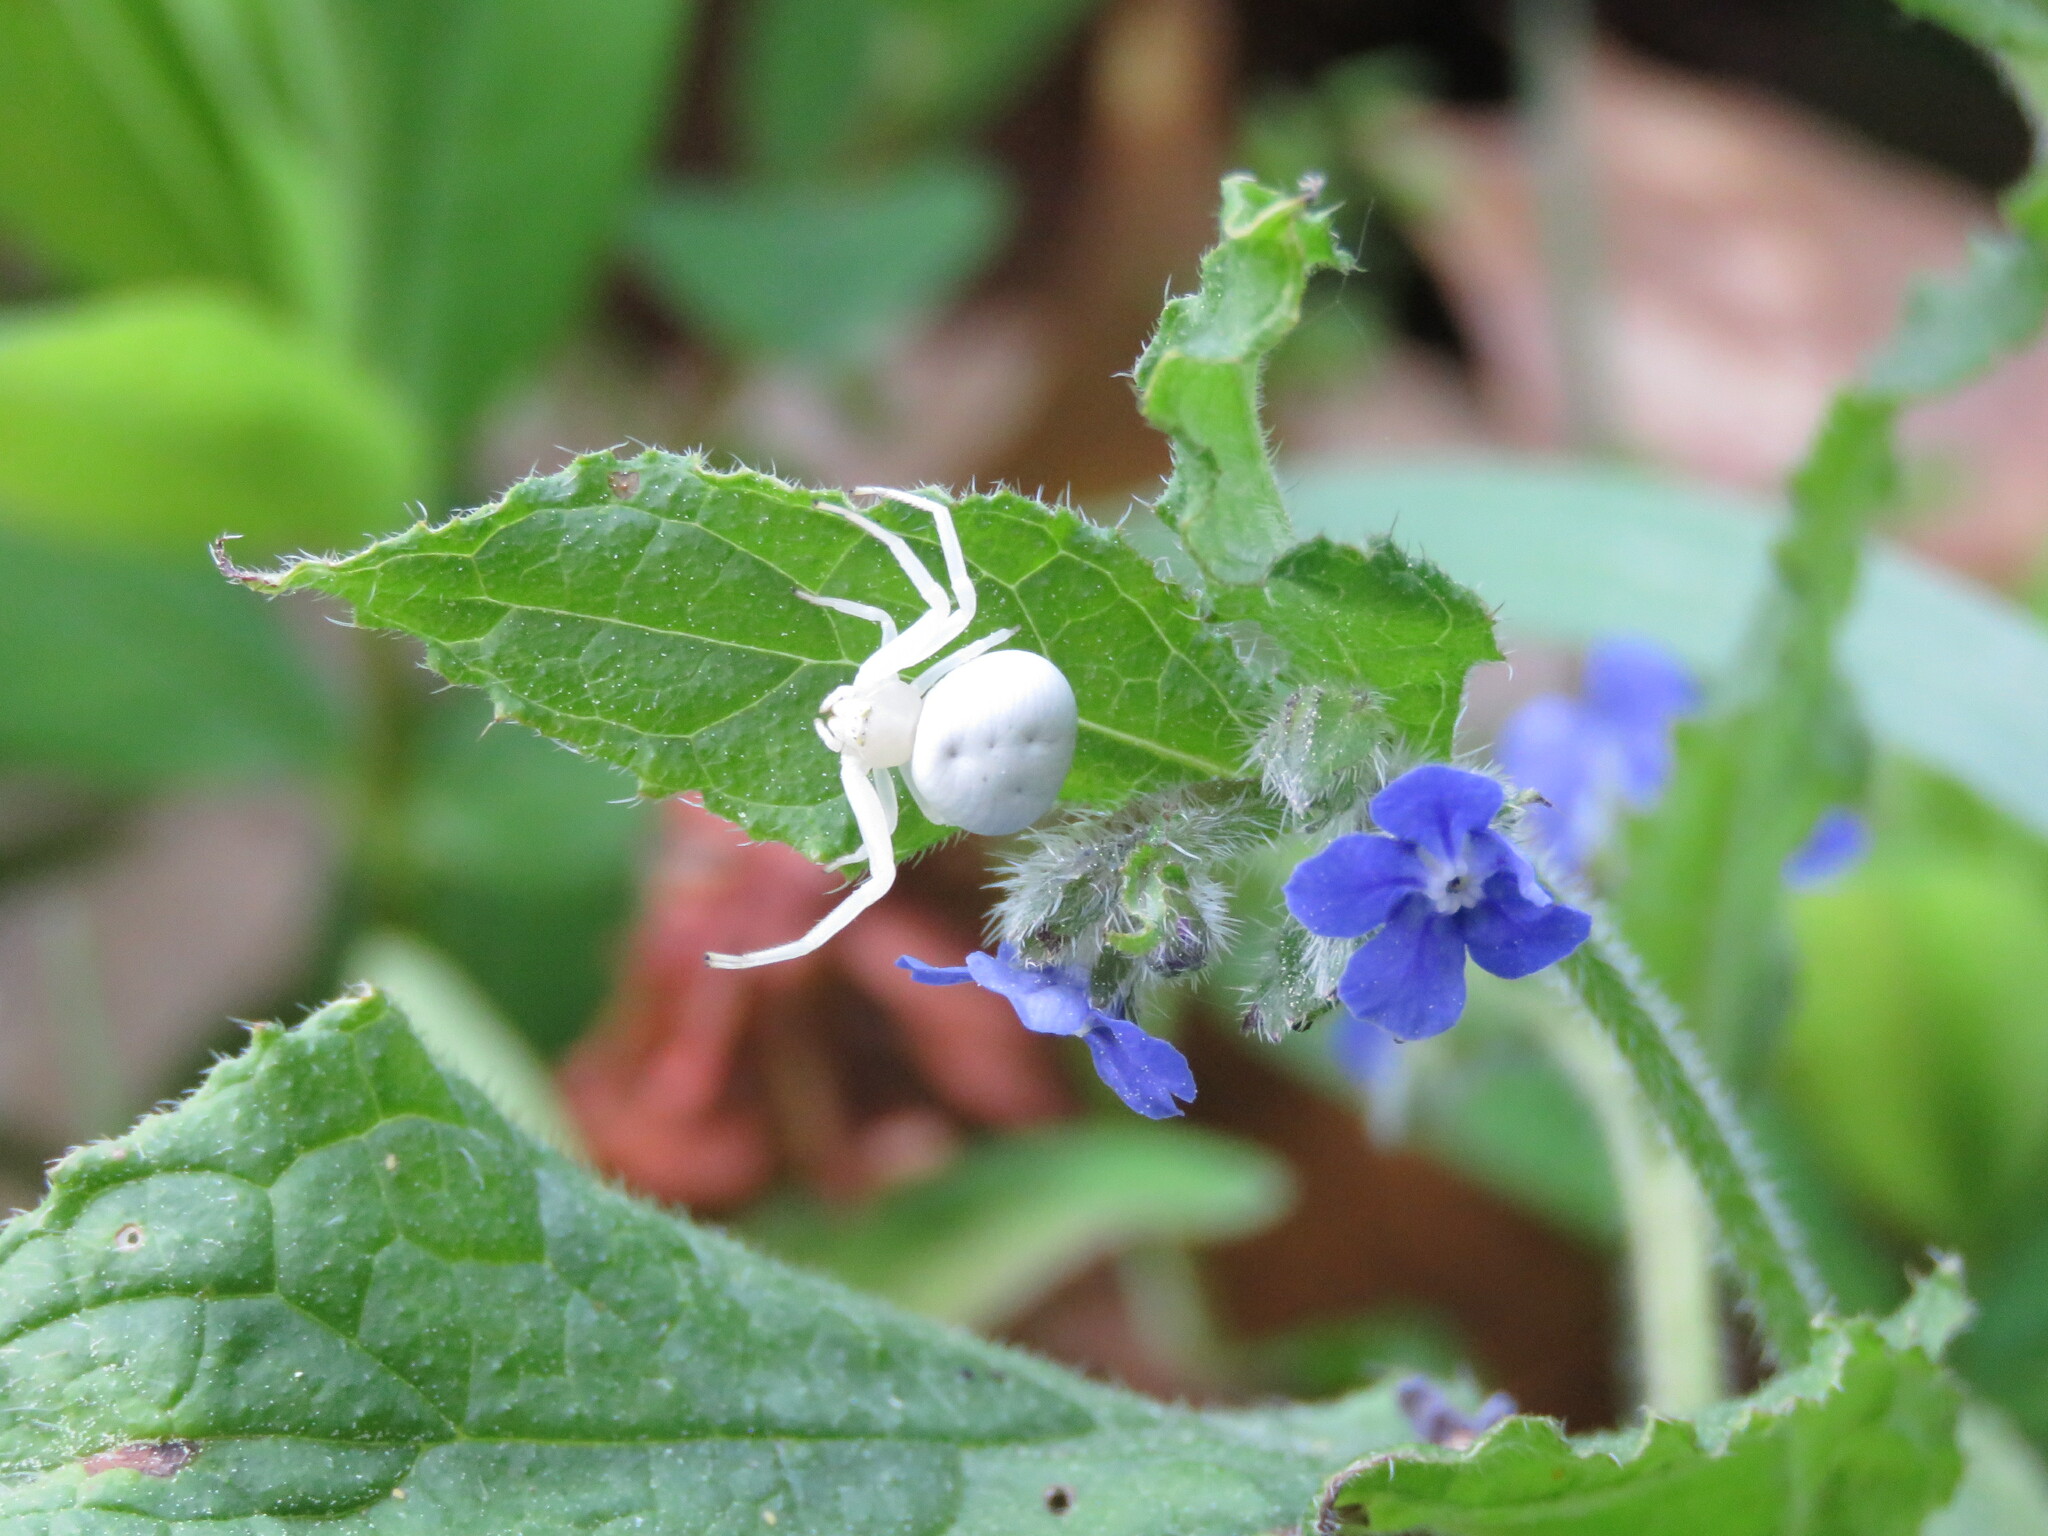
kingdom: Animalia
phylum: Arthropoda
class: Arachnida
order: Araneae
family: Thomisidae
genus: Misumena
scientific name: Misumena vatia
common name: Goldenrod crab spider
